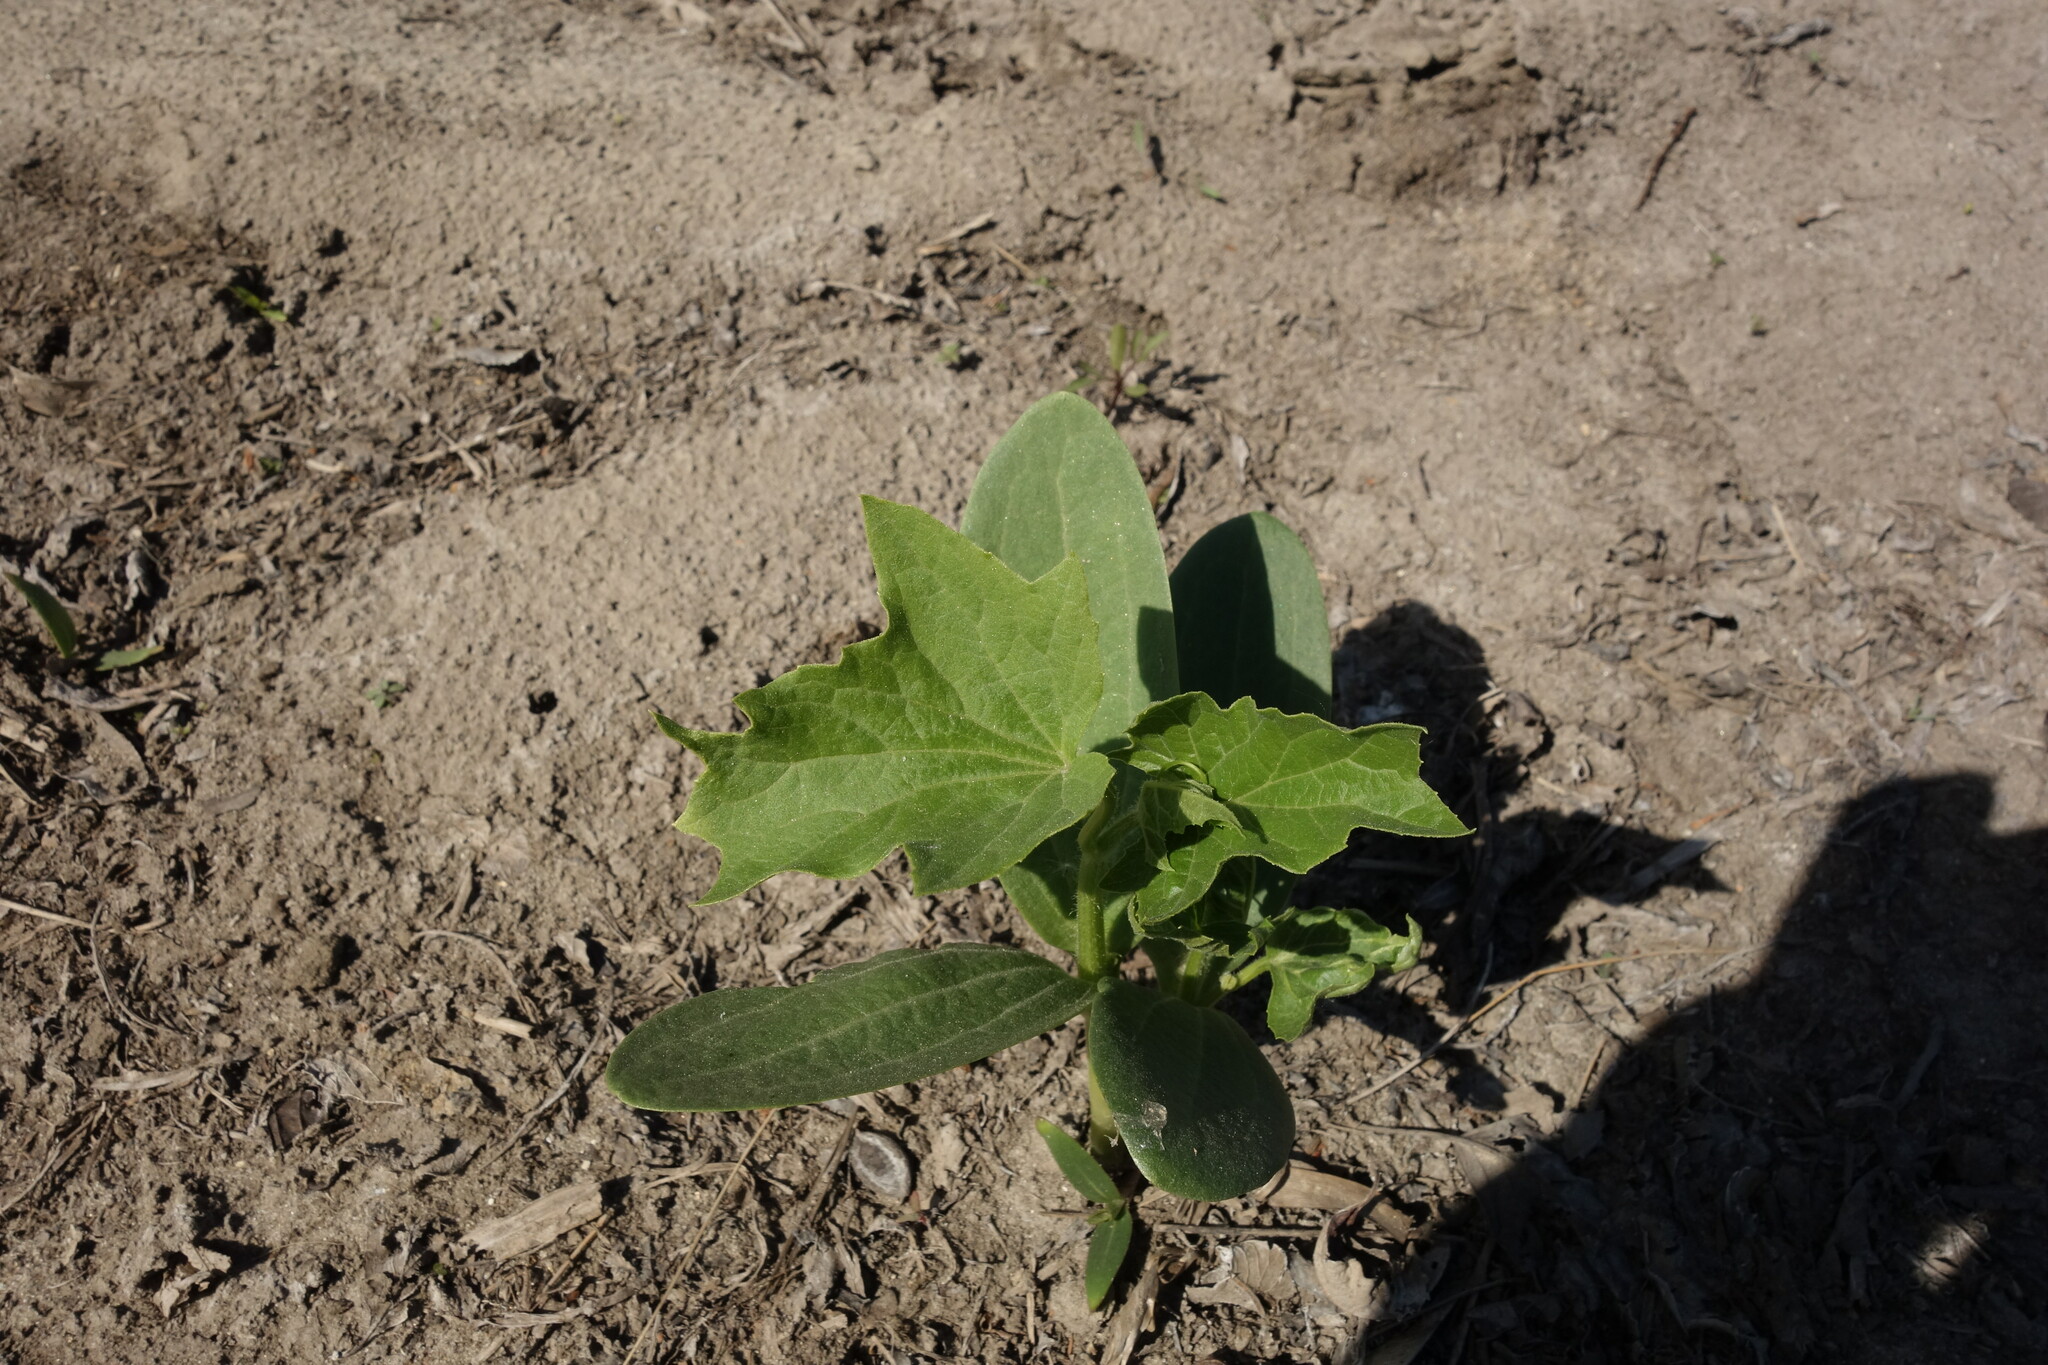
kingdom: Plantae
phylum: Tracheophyta
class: Magnoliopsida
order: Cucurbitales
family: Cucurbitaceae
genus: Echinocystis
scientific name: Echinocystis lobata
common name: Wild cucumber
